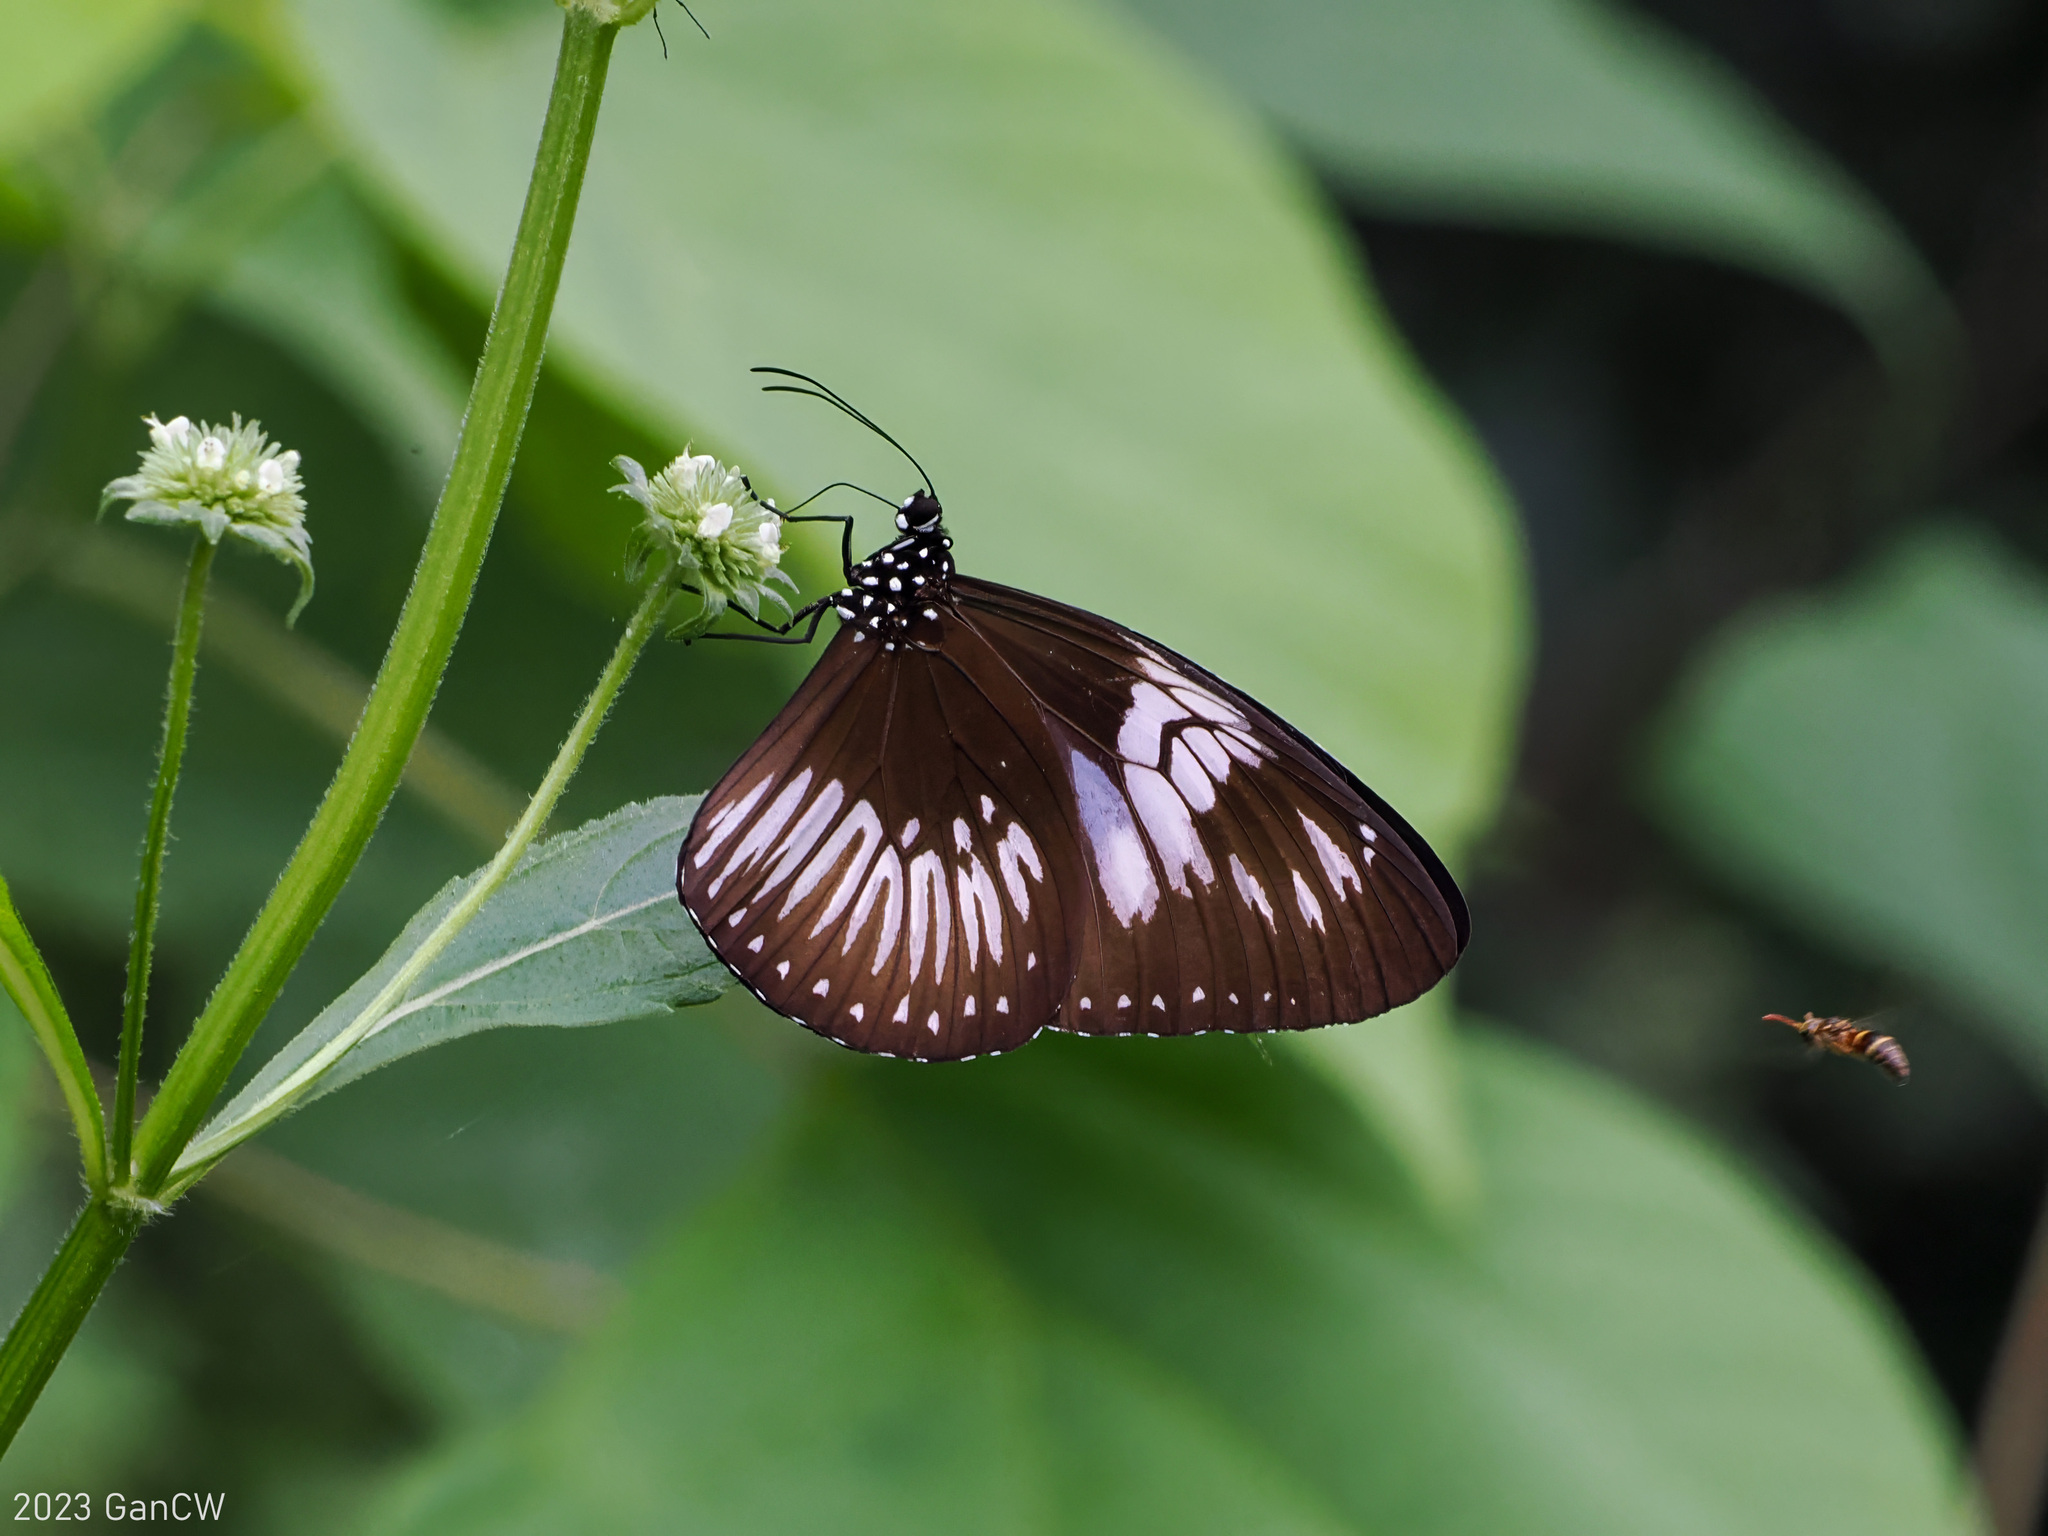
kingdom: Animalia
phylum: Arthropoda
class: Insecta
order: Lepidoptera
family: Nymphalidae
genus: Euploea
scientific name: Euploea eupator
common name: Sulawesi pied crow
